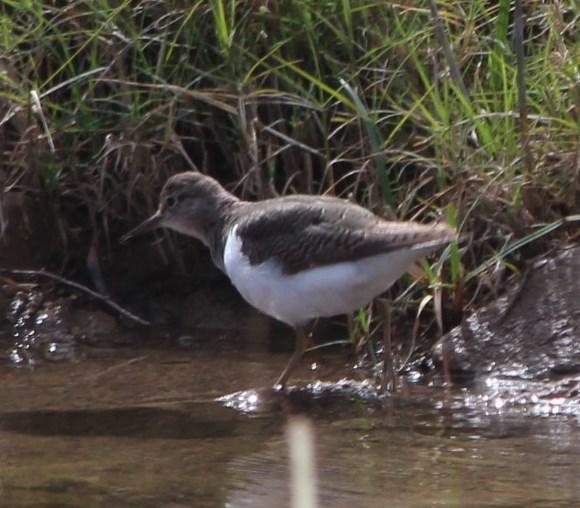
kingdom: Animalia
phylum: Chordata
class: Aves
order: Charadriiformes
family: Scolopacidae
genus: Actitis
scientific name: Actitis hypoleucos
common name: Common sandpiper
